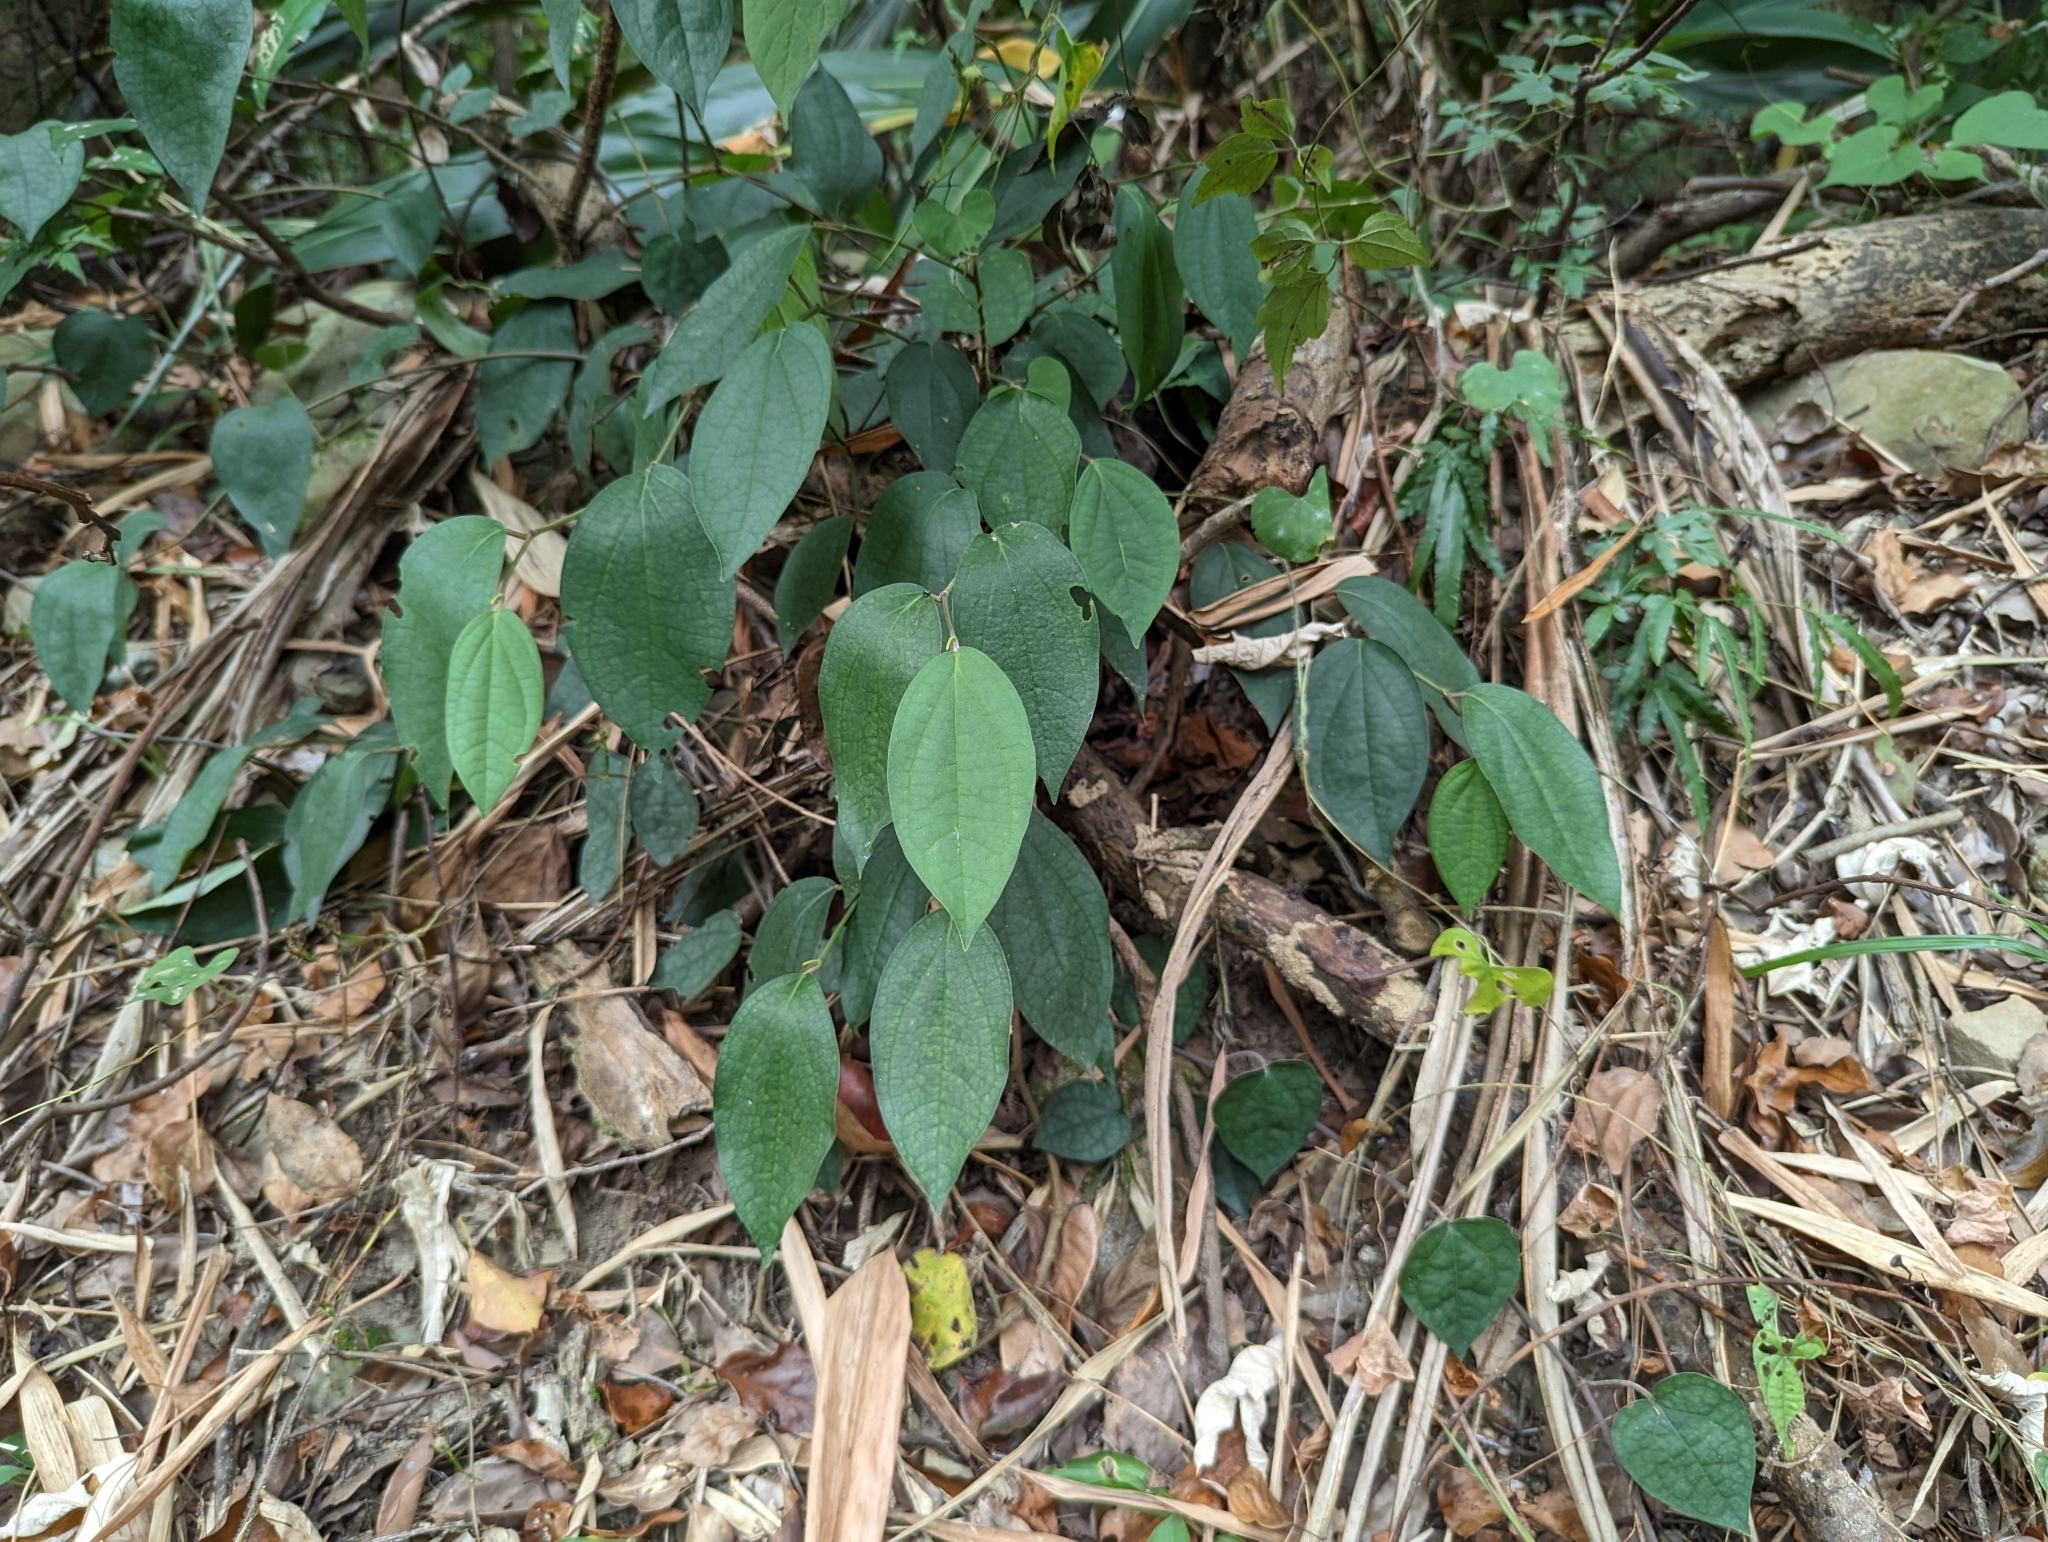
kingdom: Plantae
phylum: Tracheophyta
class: Magnoliopsida
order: Piperales
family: Piperaceae
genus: Piper
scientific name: Piper kadsura
